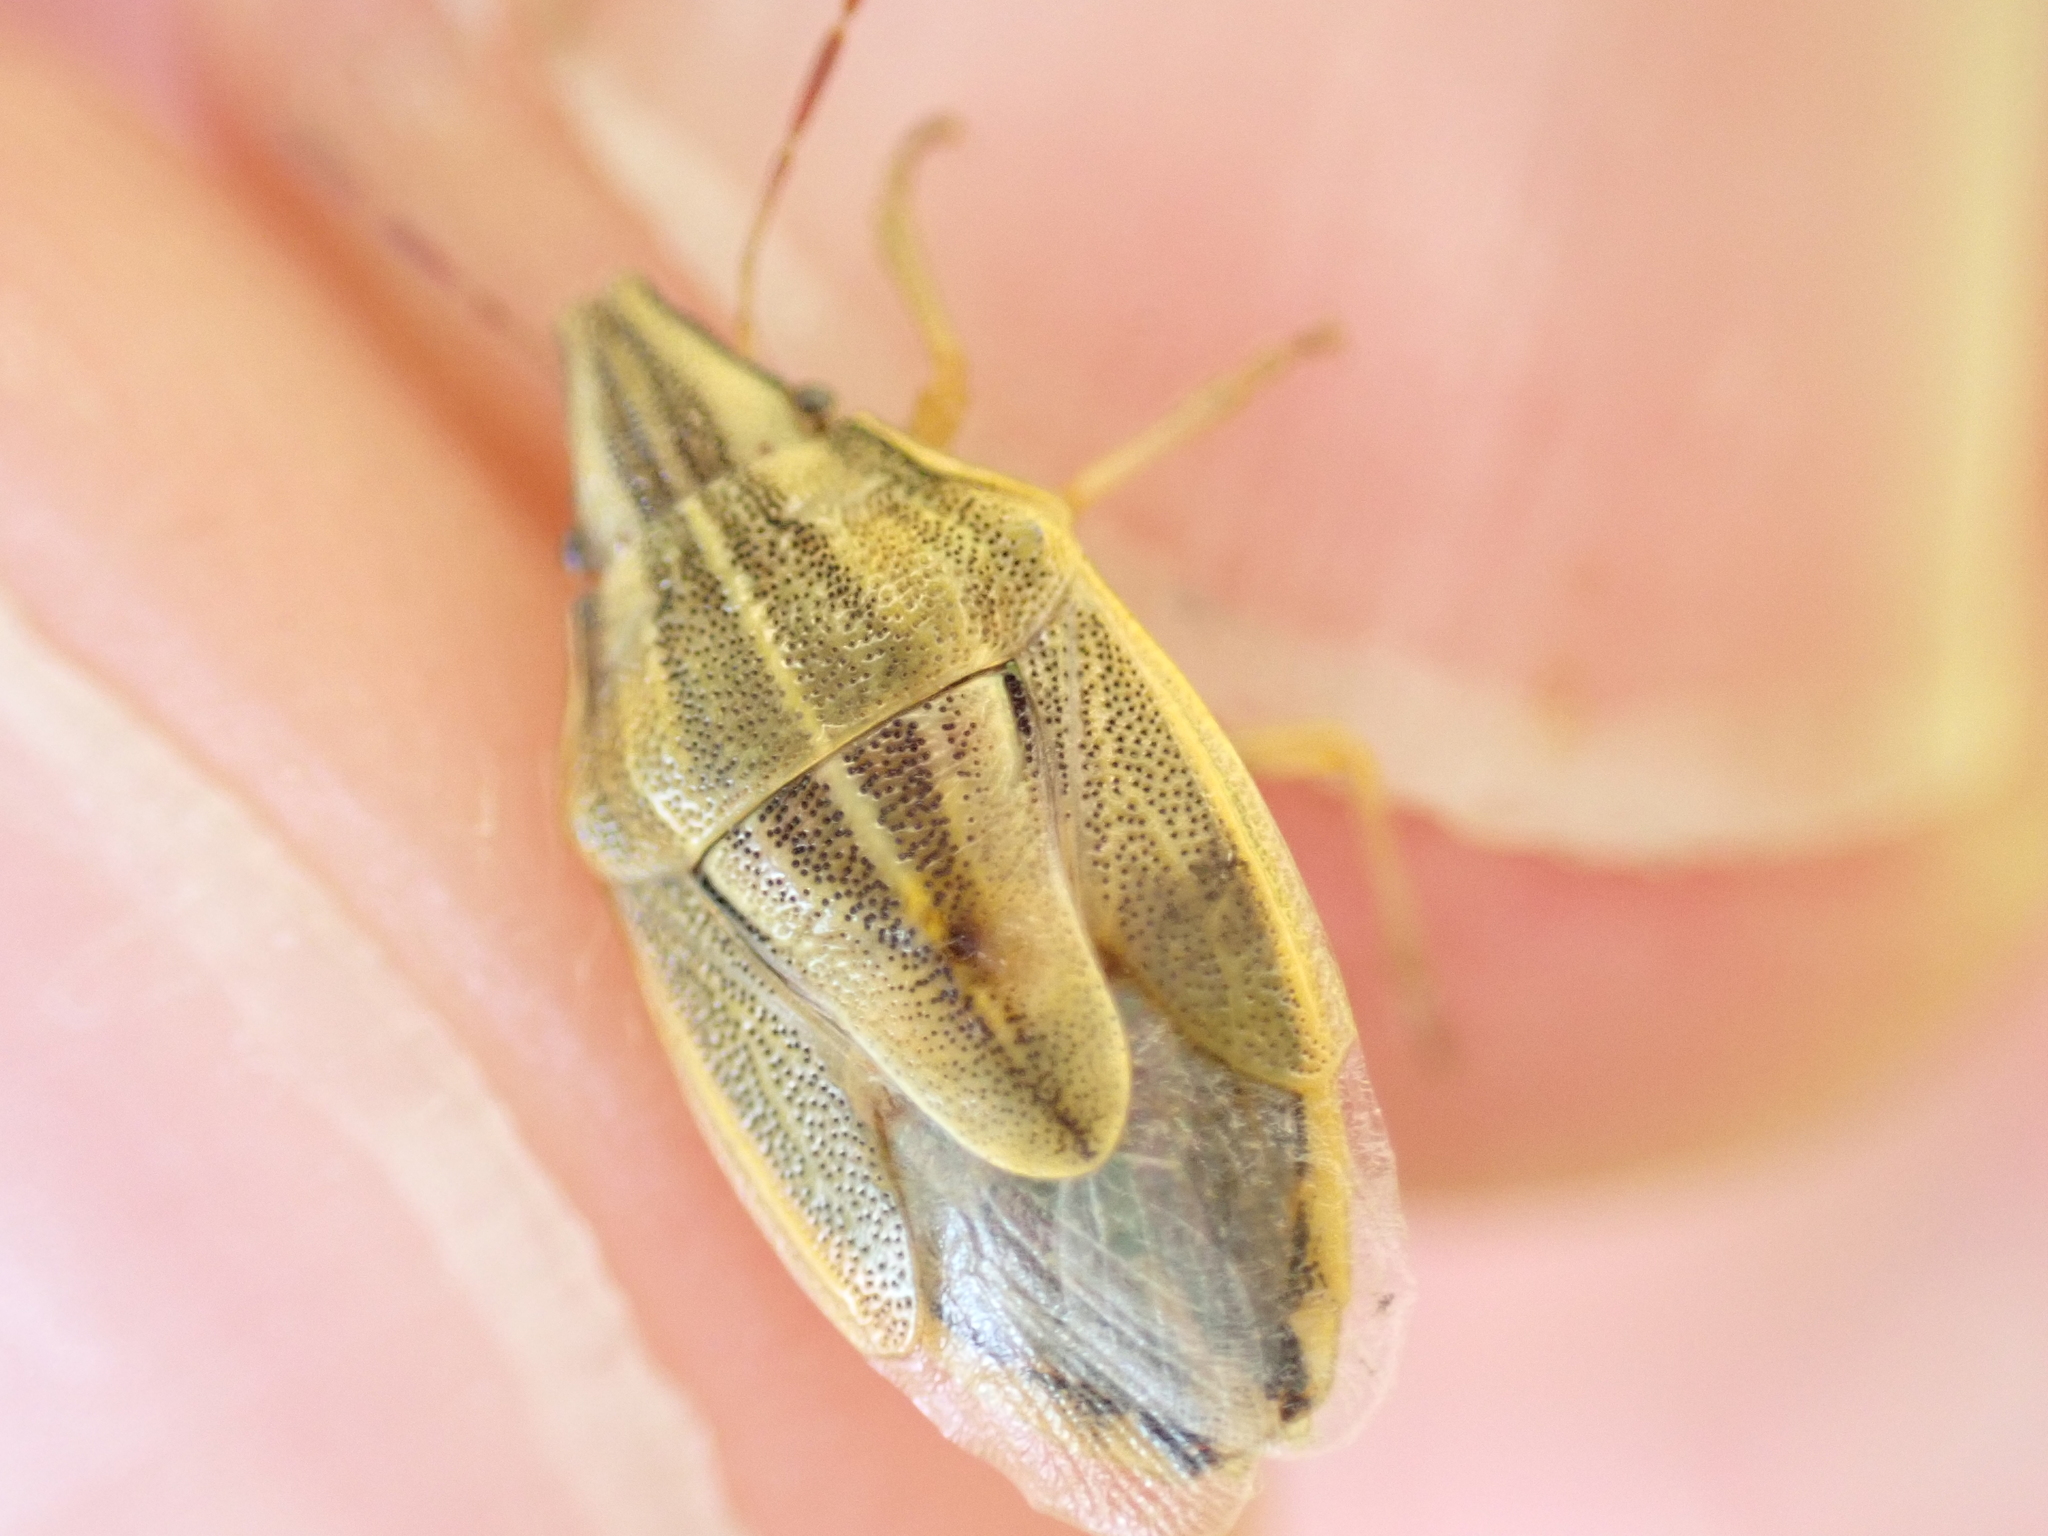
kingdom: Animalia
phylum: Arthropoda
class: Insecta
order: Hemiptera
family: Pentatomidae
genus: Aelia
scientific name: Aelia acuminata
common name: Bishop's mitre
